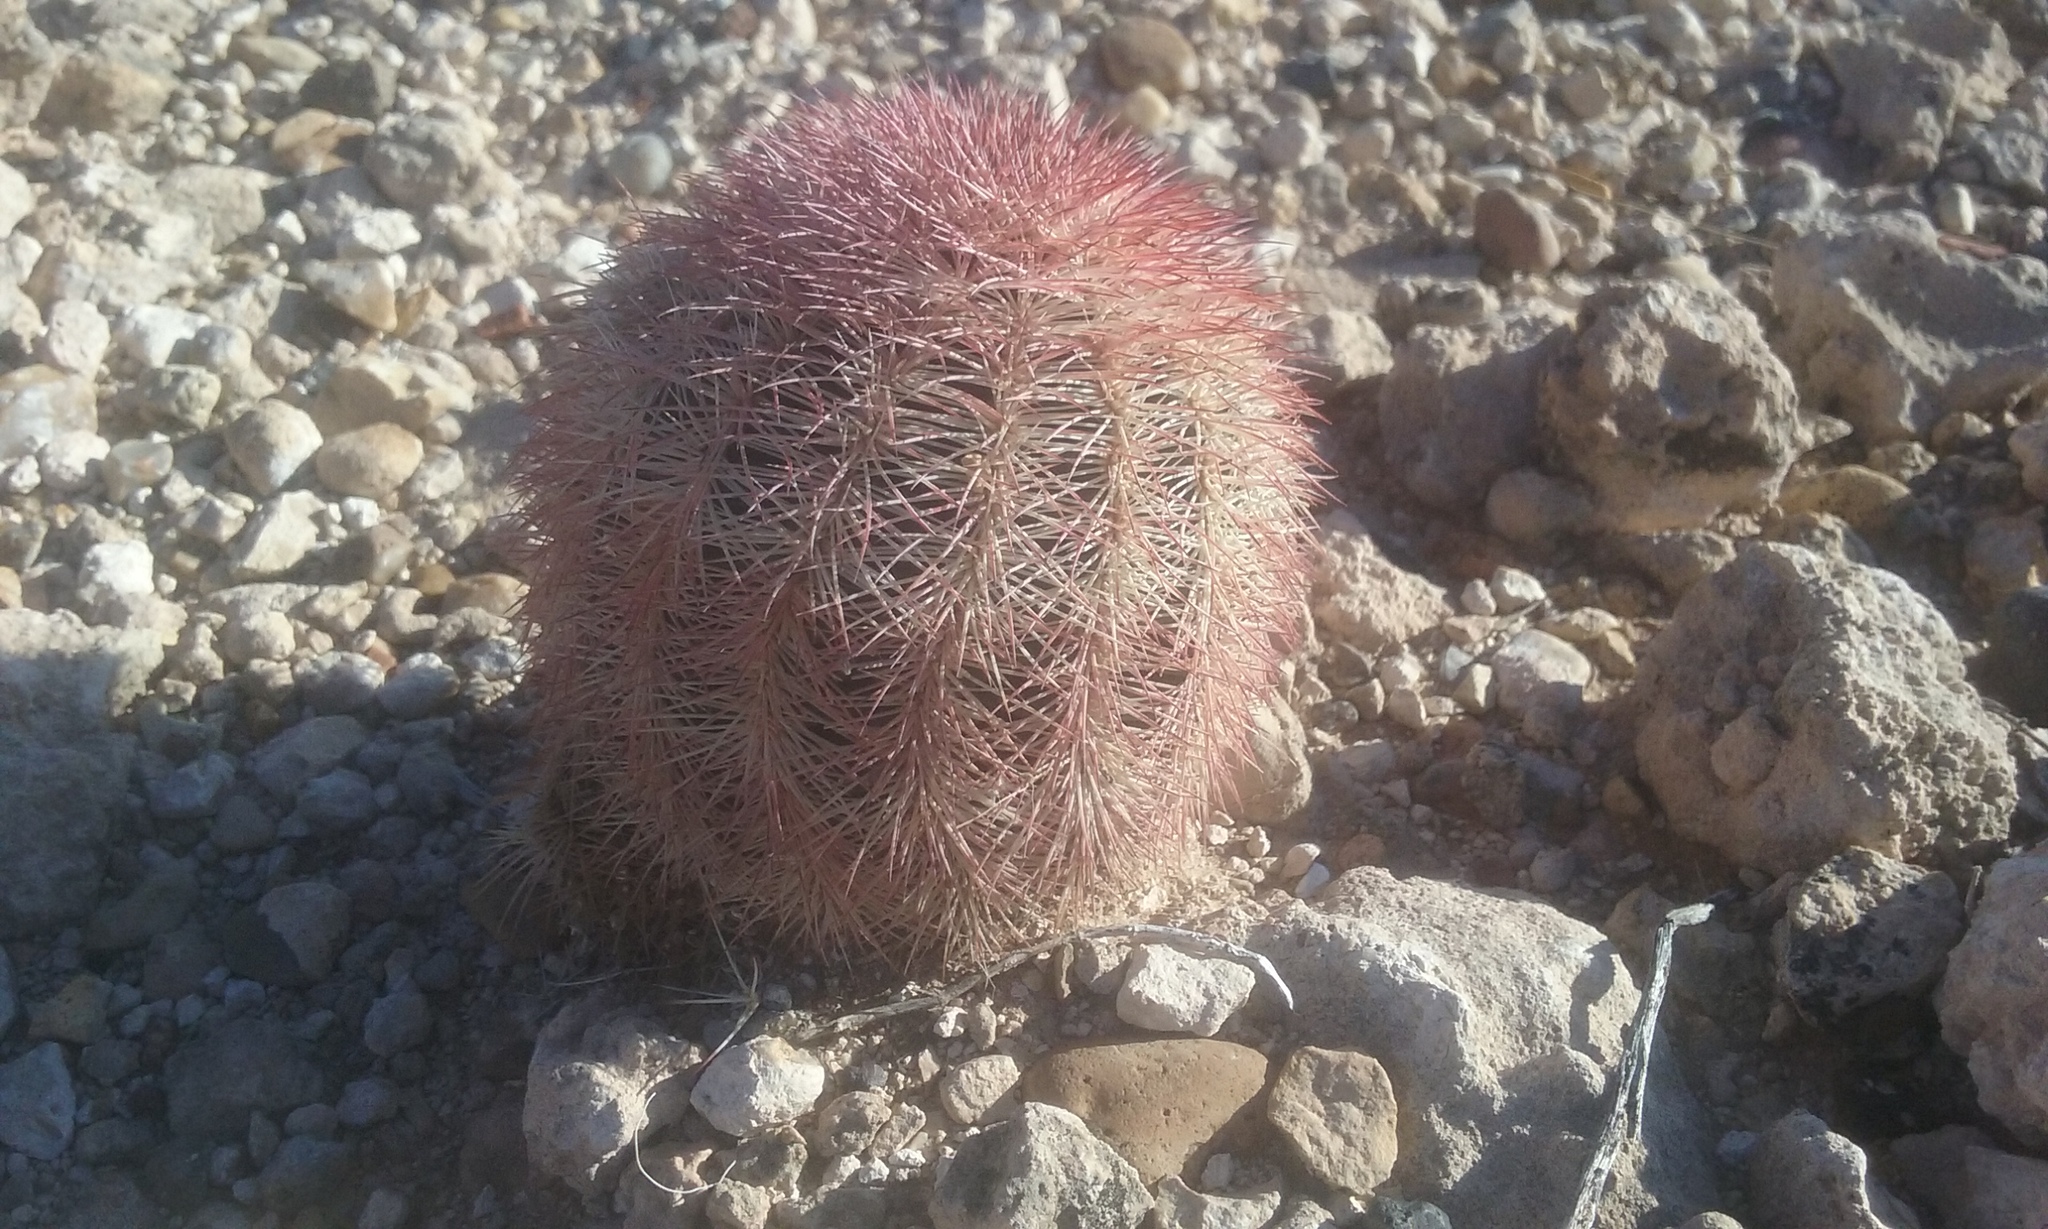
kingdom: Plantae
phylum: Tracheophyta
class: Magnoliopsida
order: Caryophyllales
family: Cactaceae
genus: Echinocereus
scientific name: Echinocereus dasyacanthus
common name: Spiny hedgehog cactus
